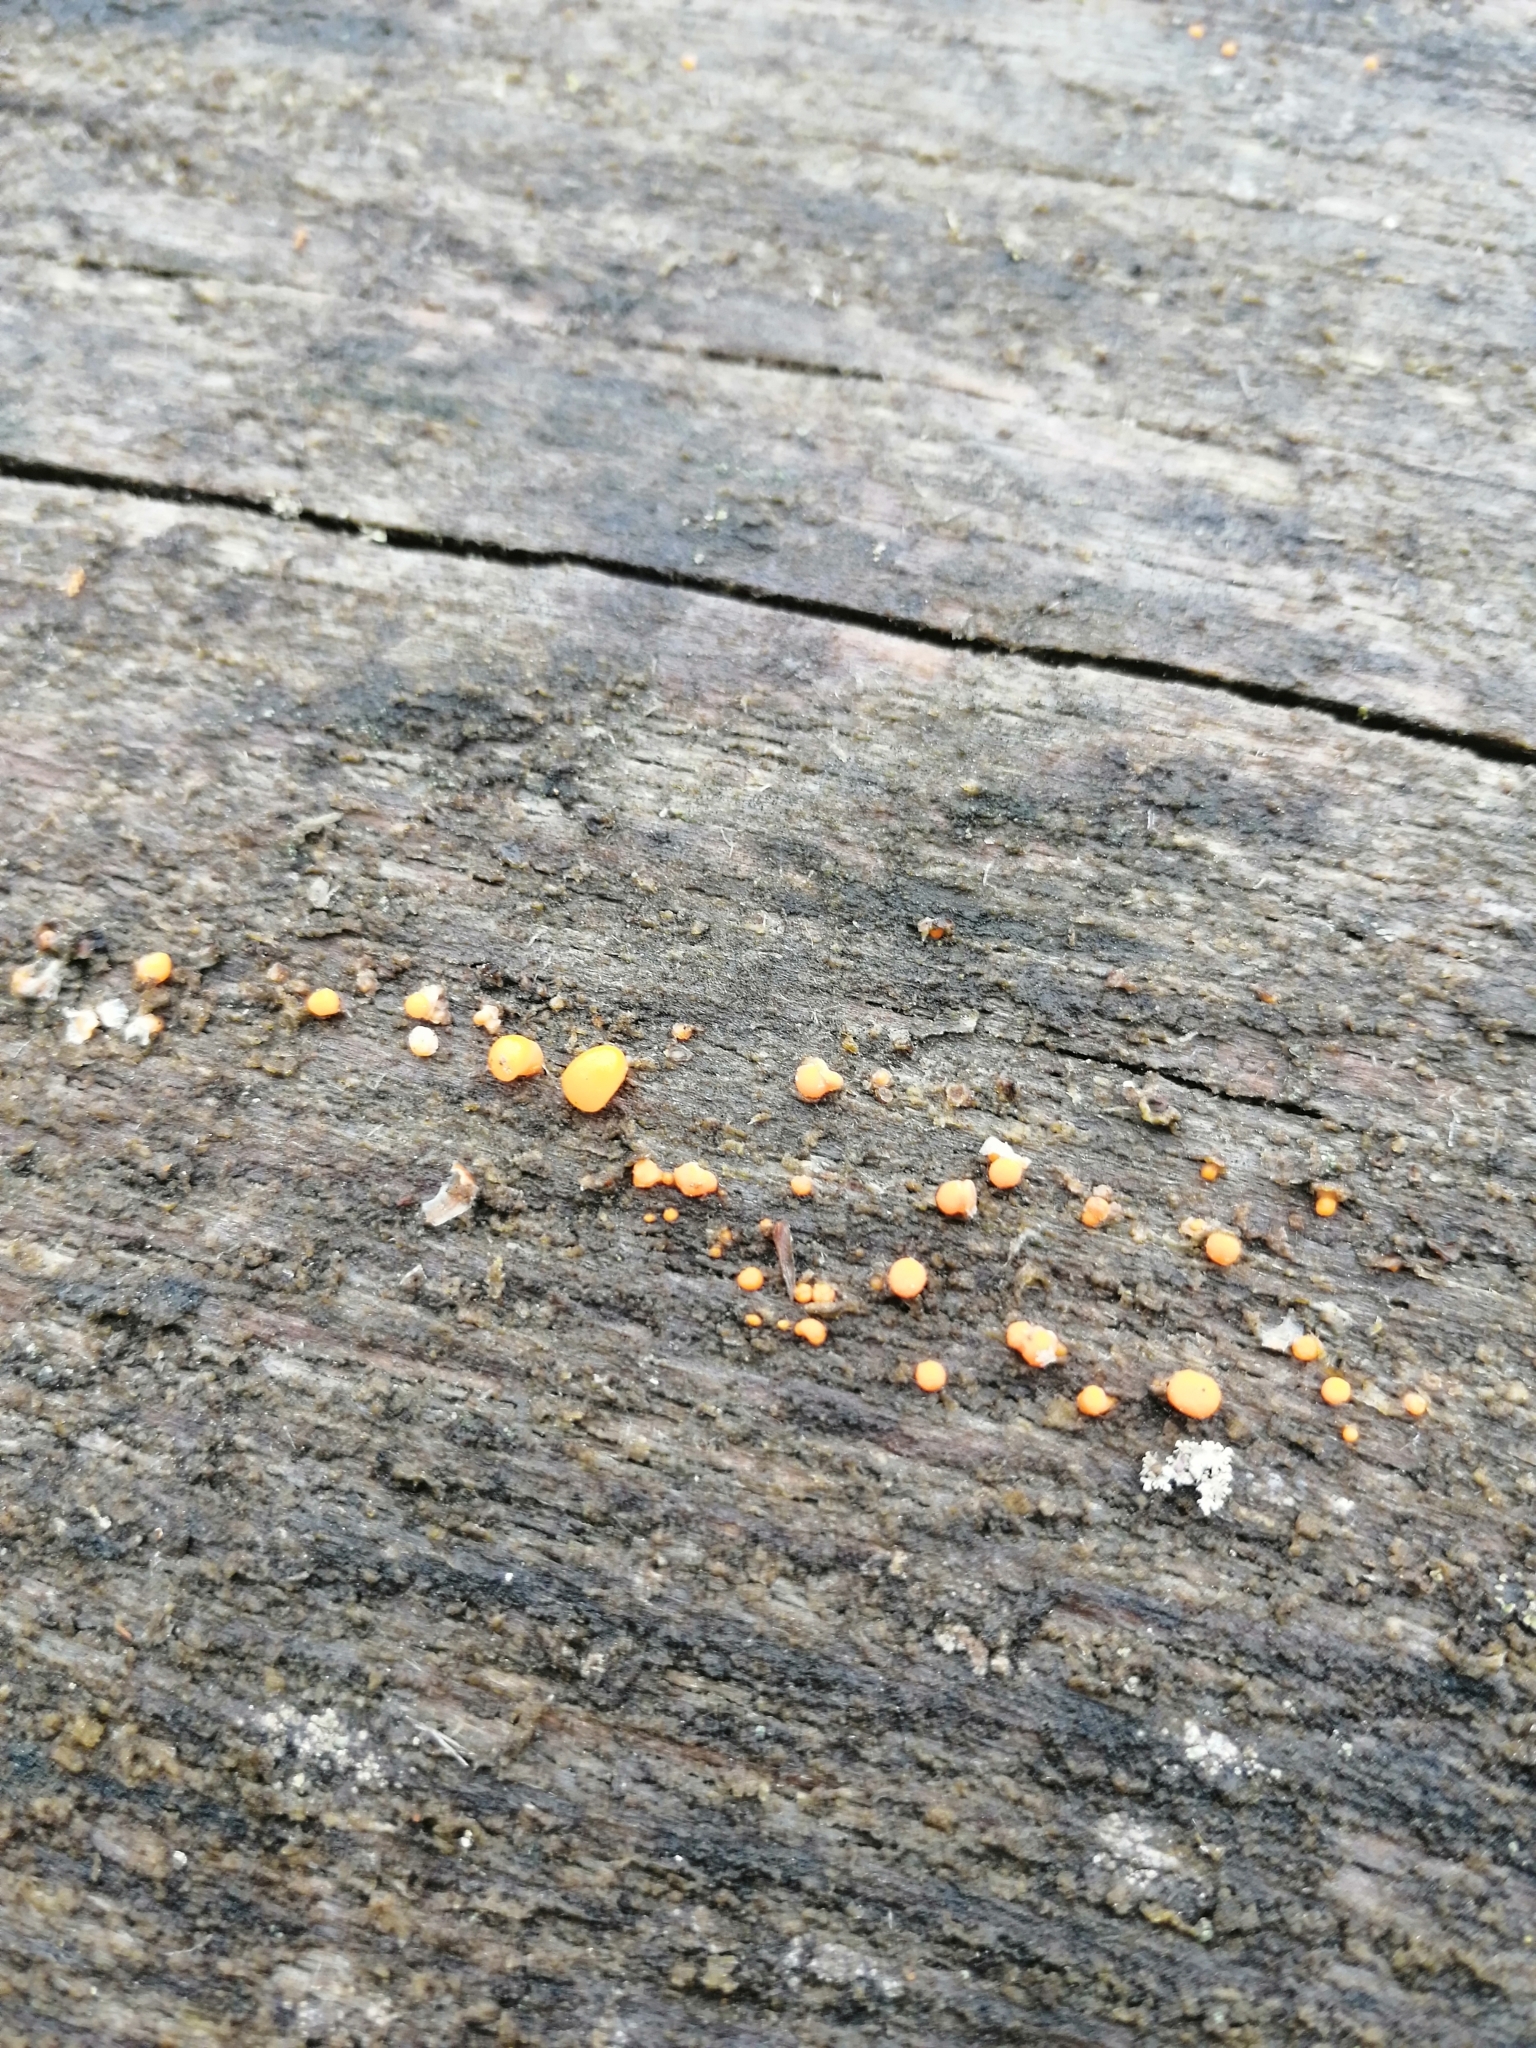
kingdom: Fungi
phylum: Basidiomycota
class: Dacrymycetes
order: Dacrymycetales
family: Dacrymycetaceae
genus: Dacrymyces
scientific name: Dacrymyces stillatus
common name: Common jelly spot
